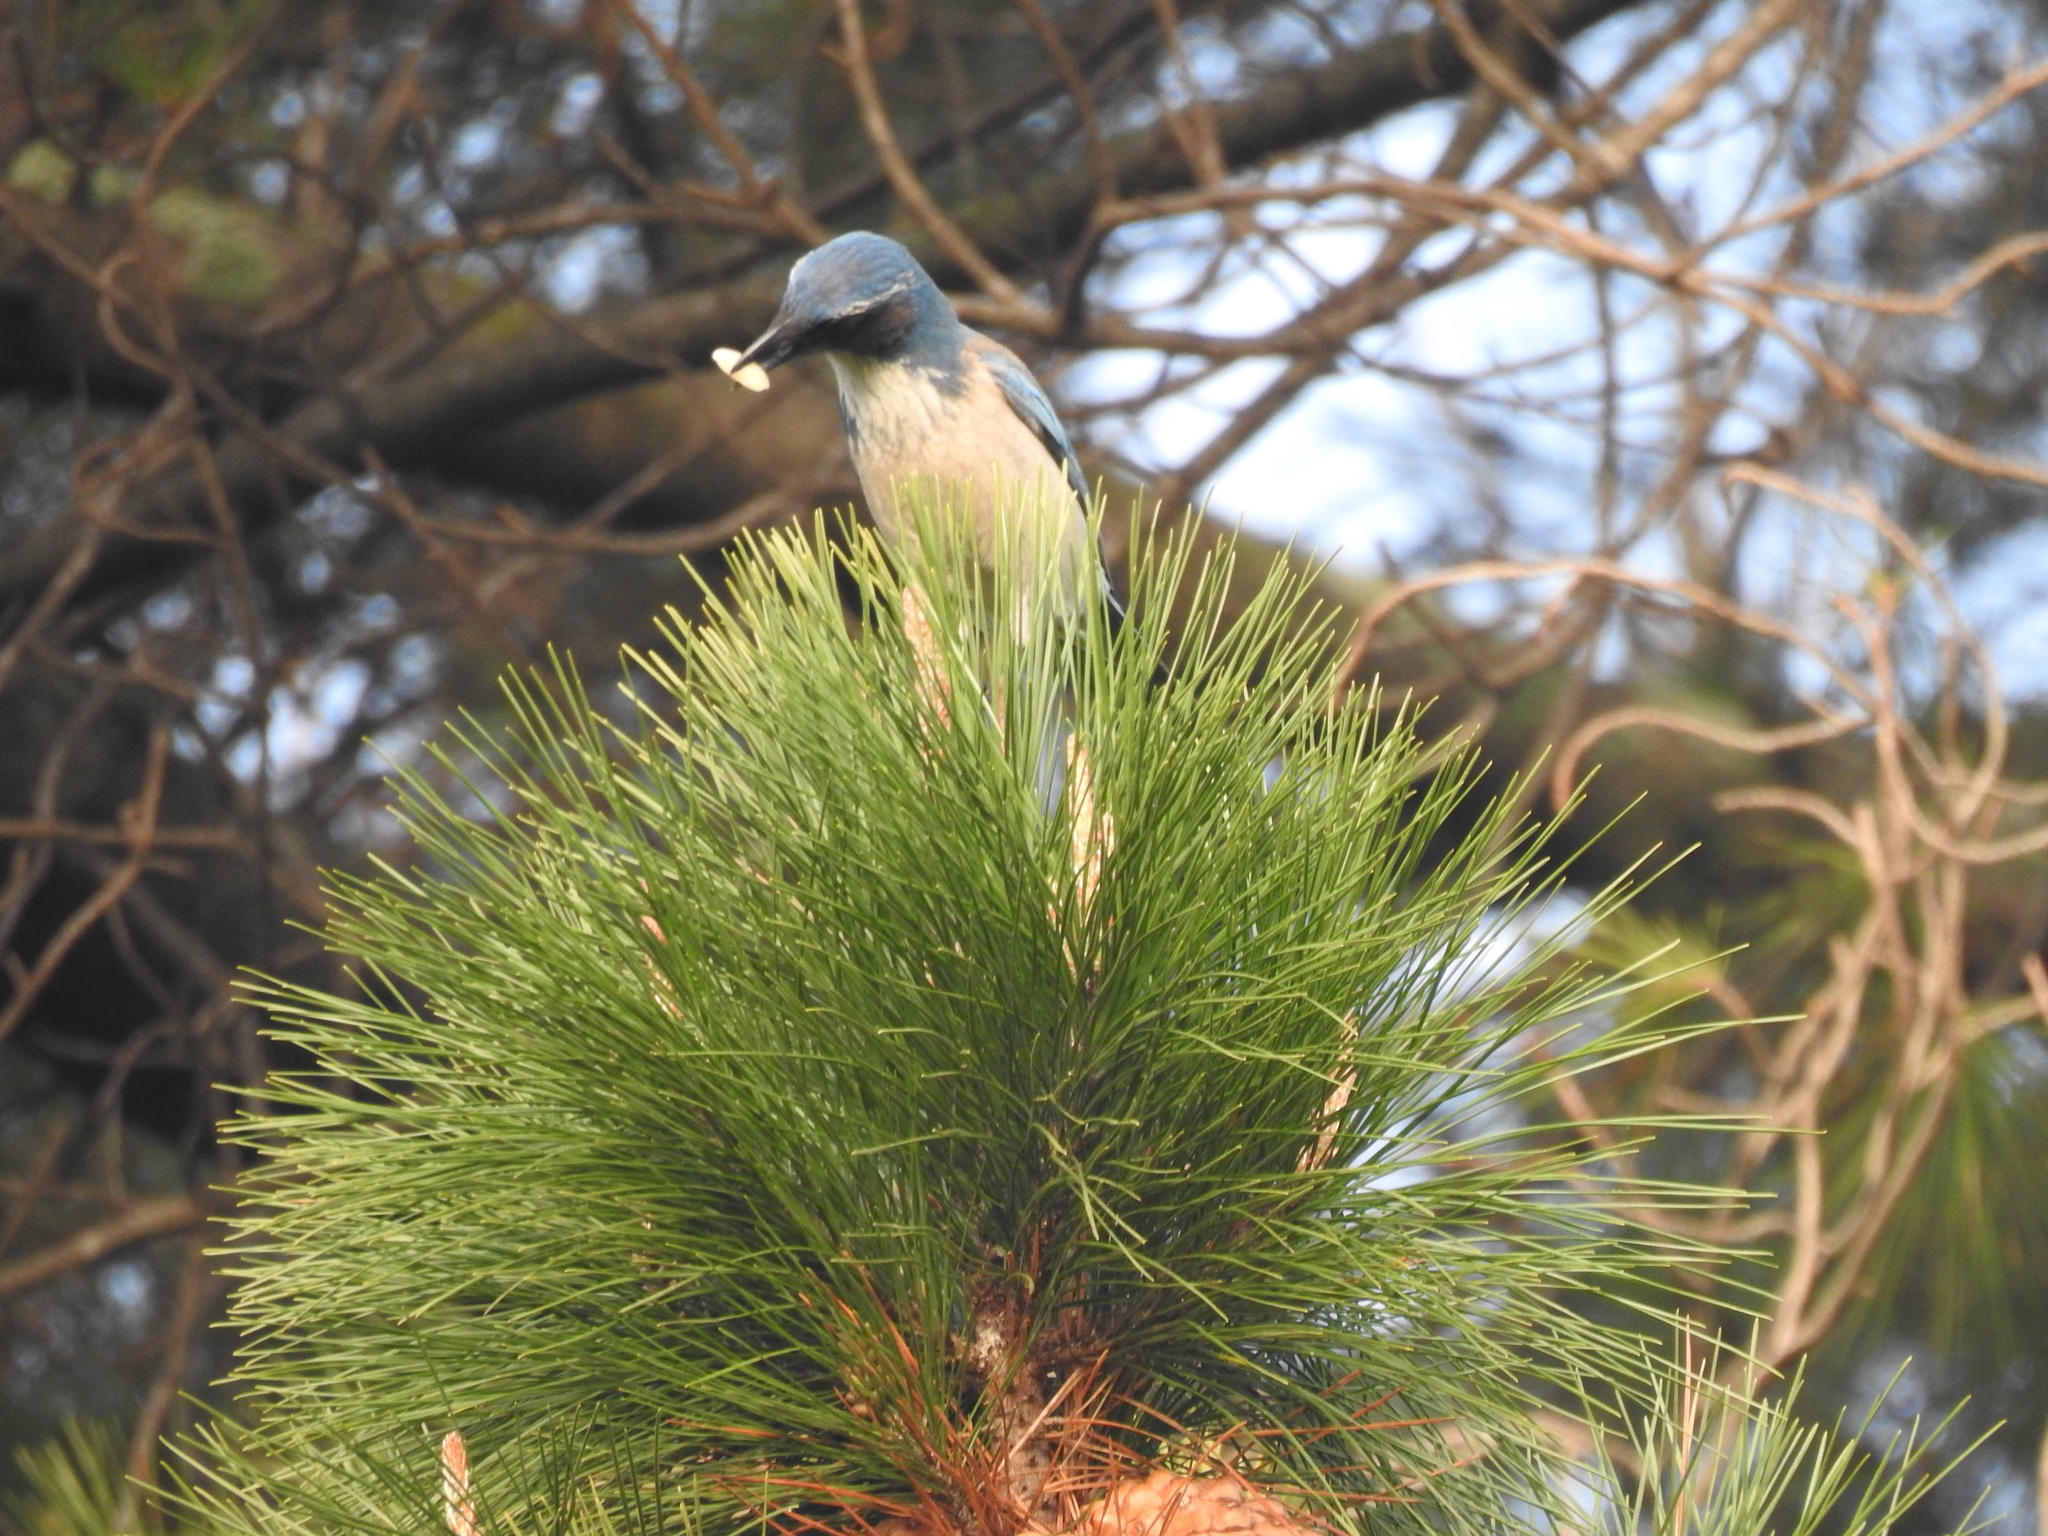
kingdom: Animalia
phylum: Chordata
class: Aves
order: Passeriformes
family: Corvidae
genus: Aphelocoma
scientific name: Aphelocoma californica
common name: California scrub-jay
